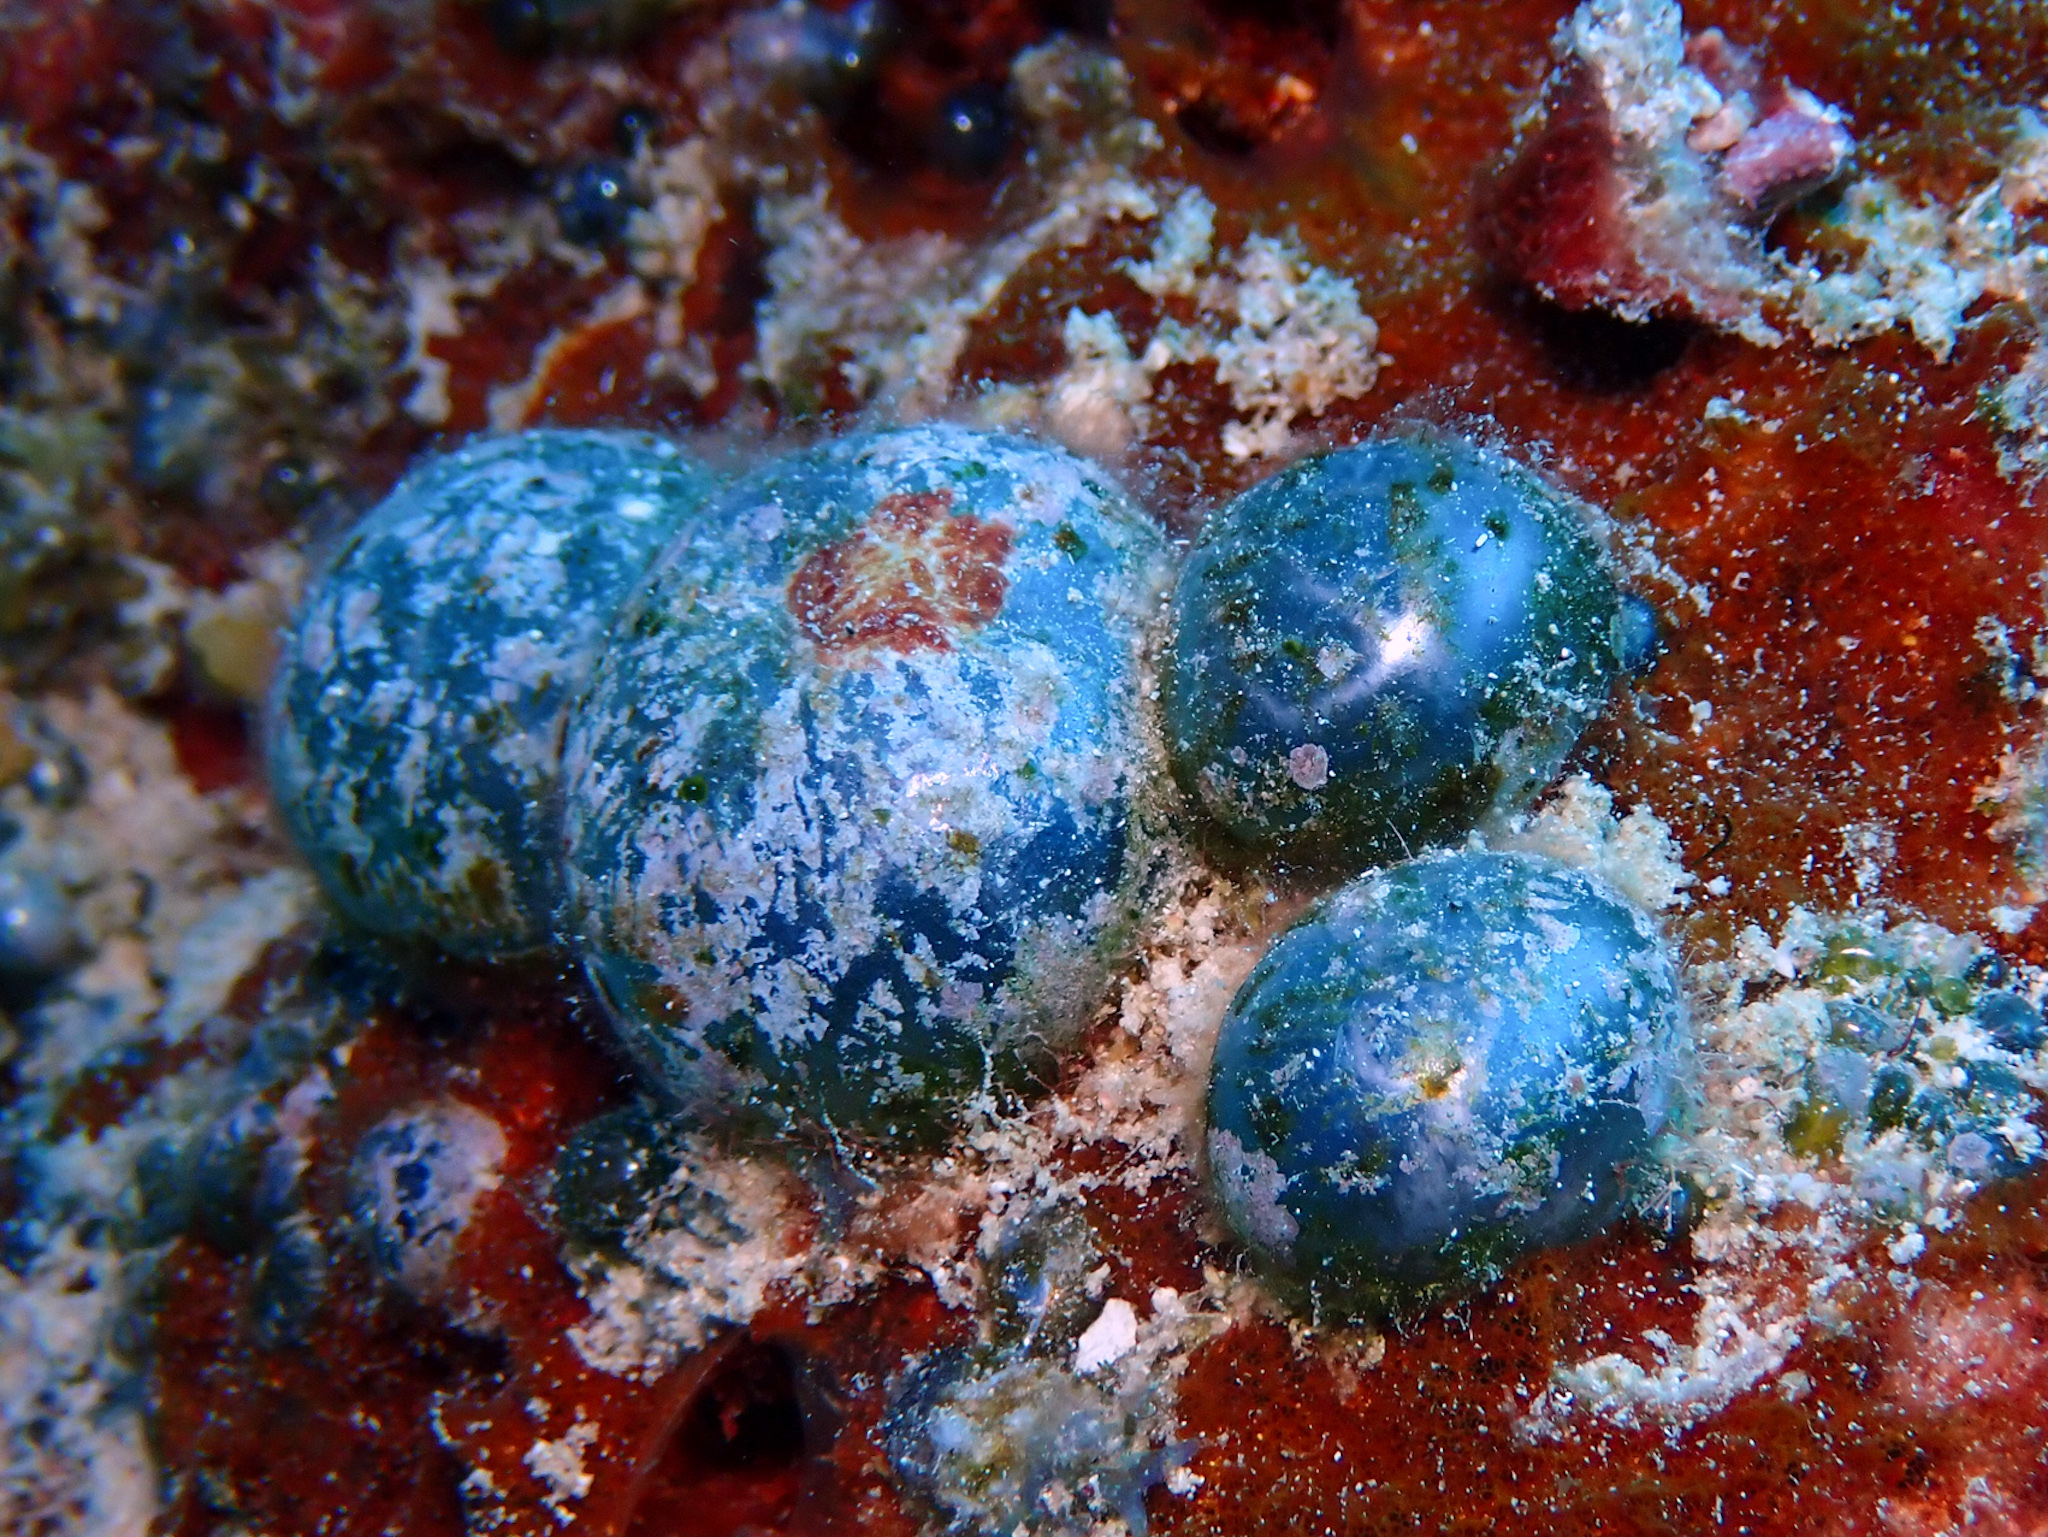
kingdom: Plantae
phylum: Chlorophyta
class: Ulvophyceae
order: Siphonocladales
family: Valoniaceae
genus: Valonia
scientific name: Valonia ventricosa
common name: Sea pearl
